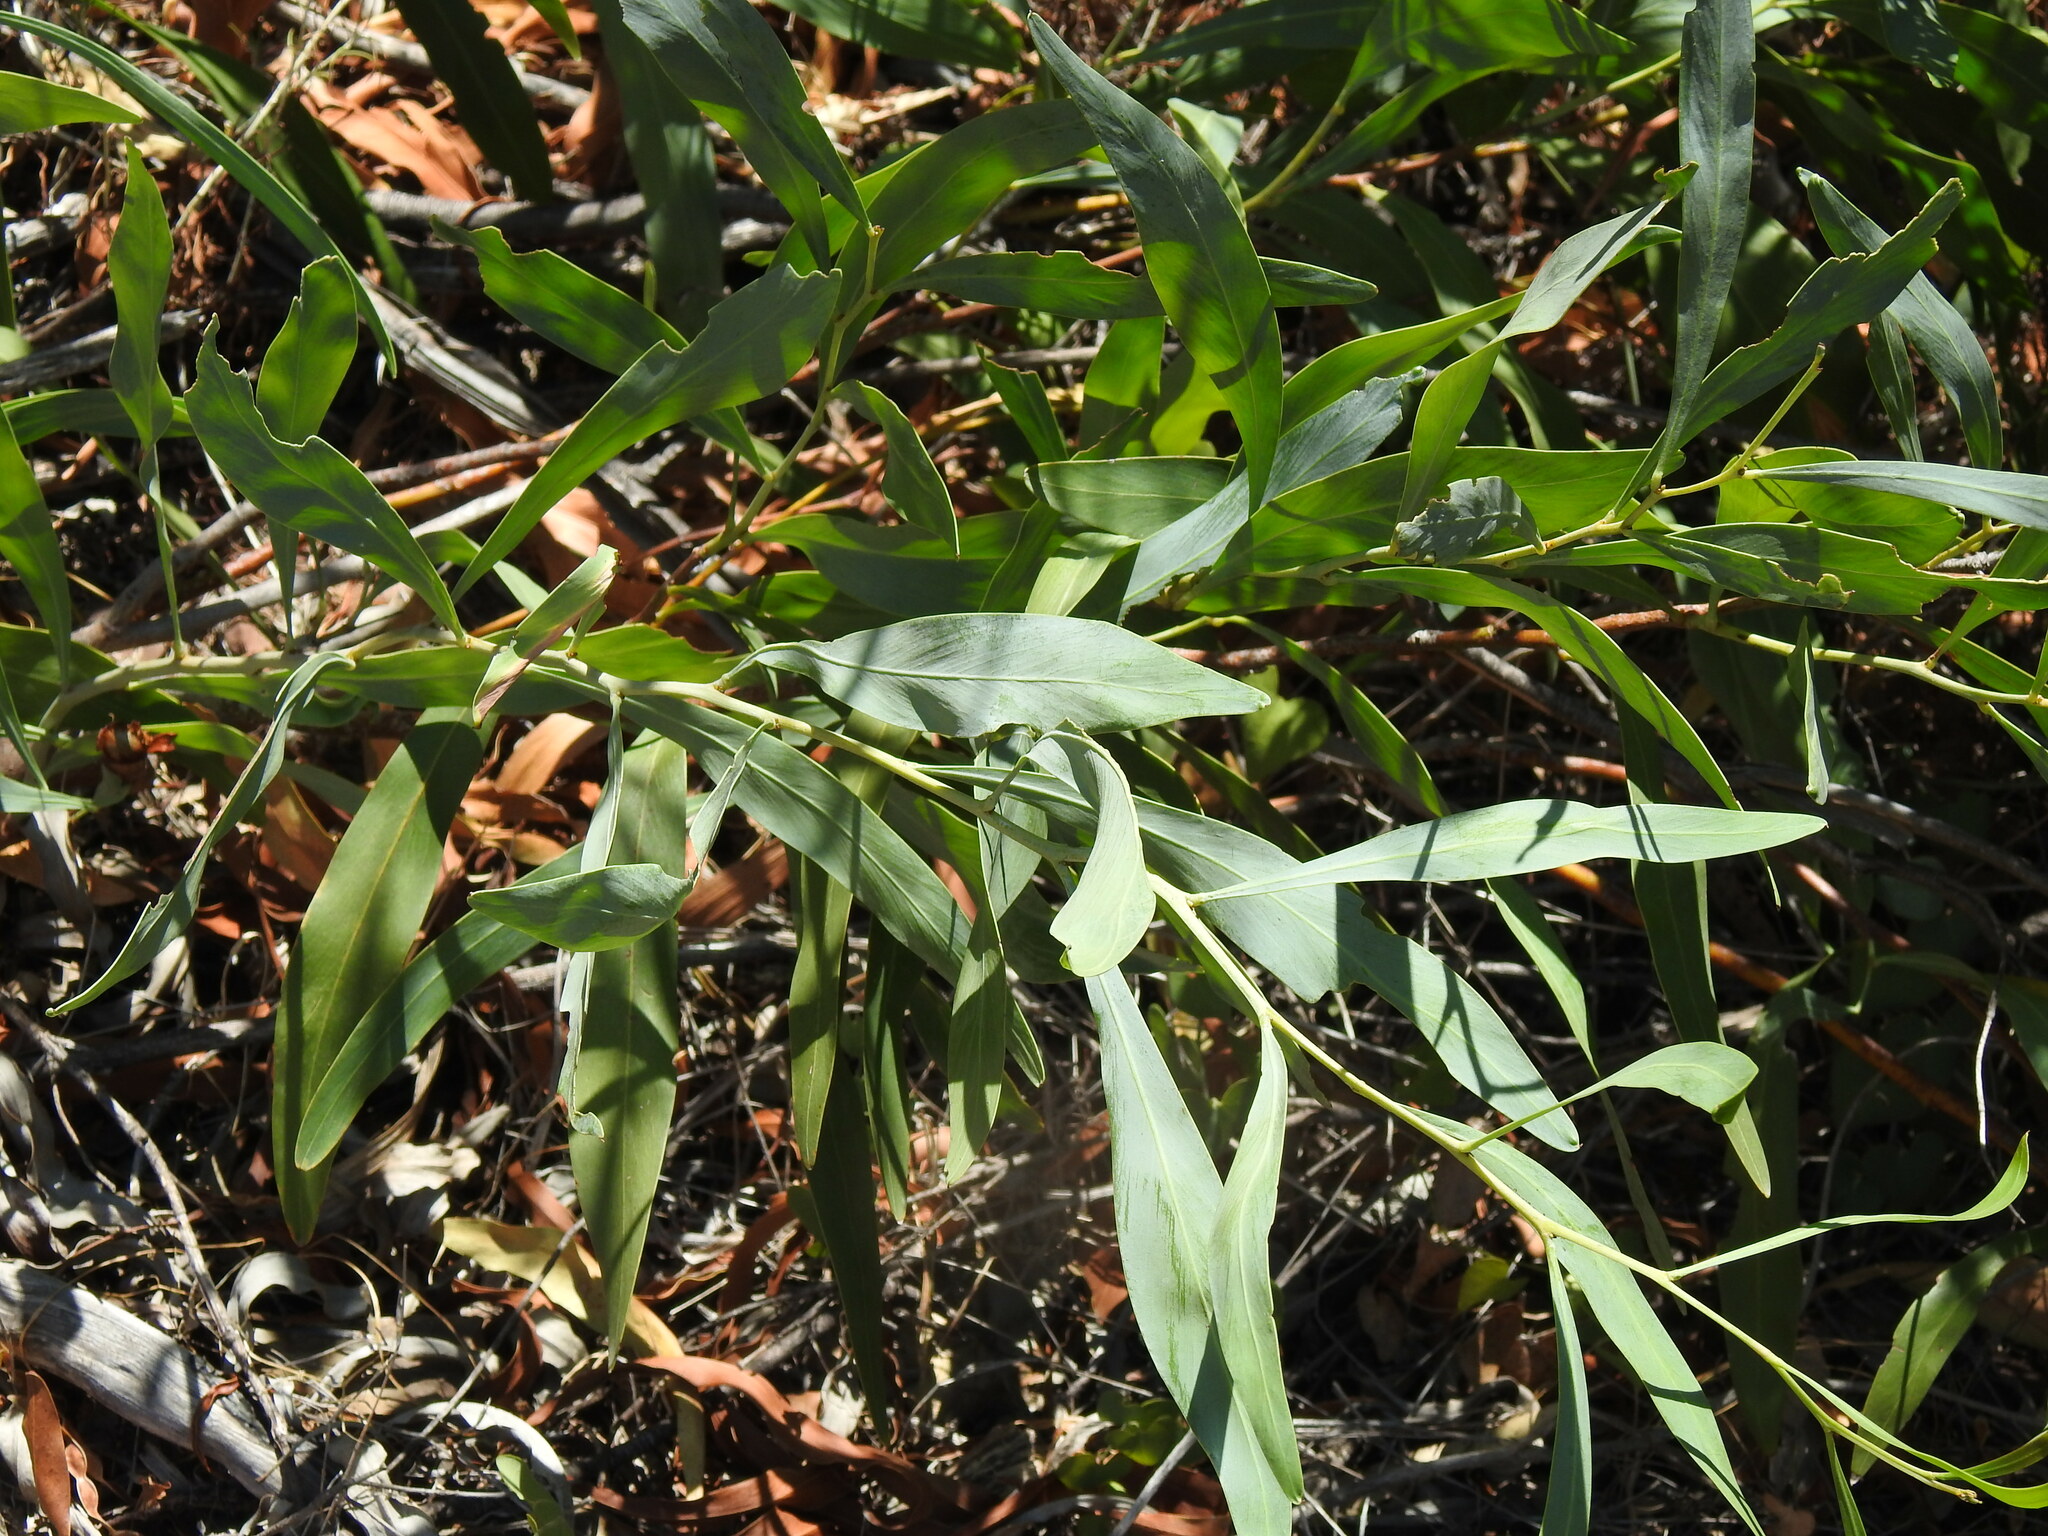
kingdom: Plantae
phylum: Tracheophyta
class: Magnoliopsida
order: Fabales
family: Fabaceae
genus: Acacia
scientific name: Acacia saligna
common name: Orange wattle
